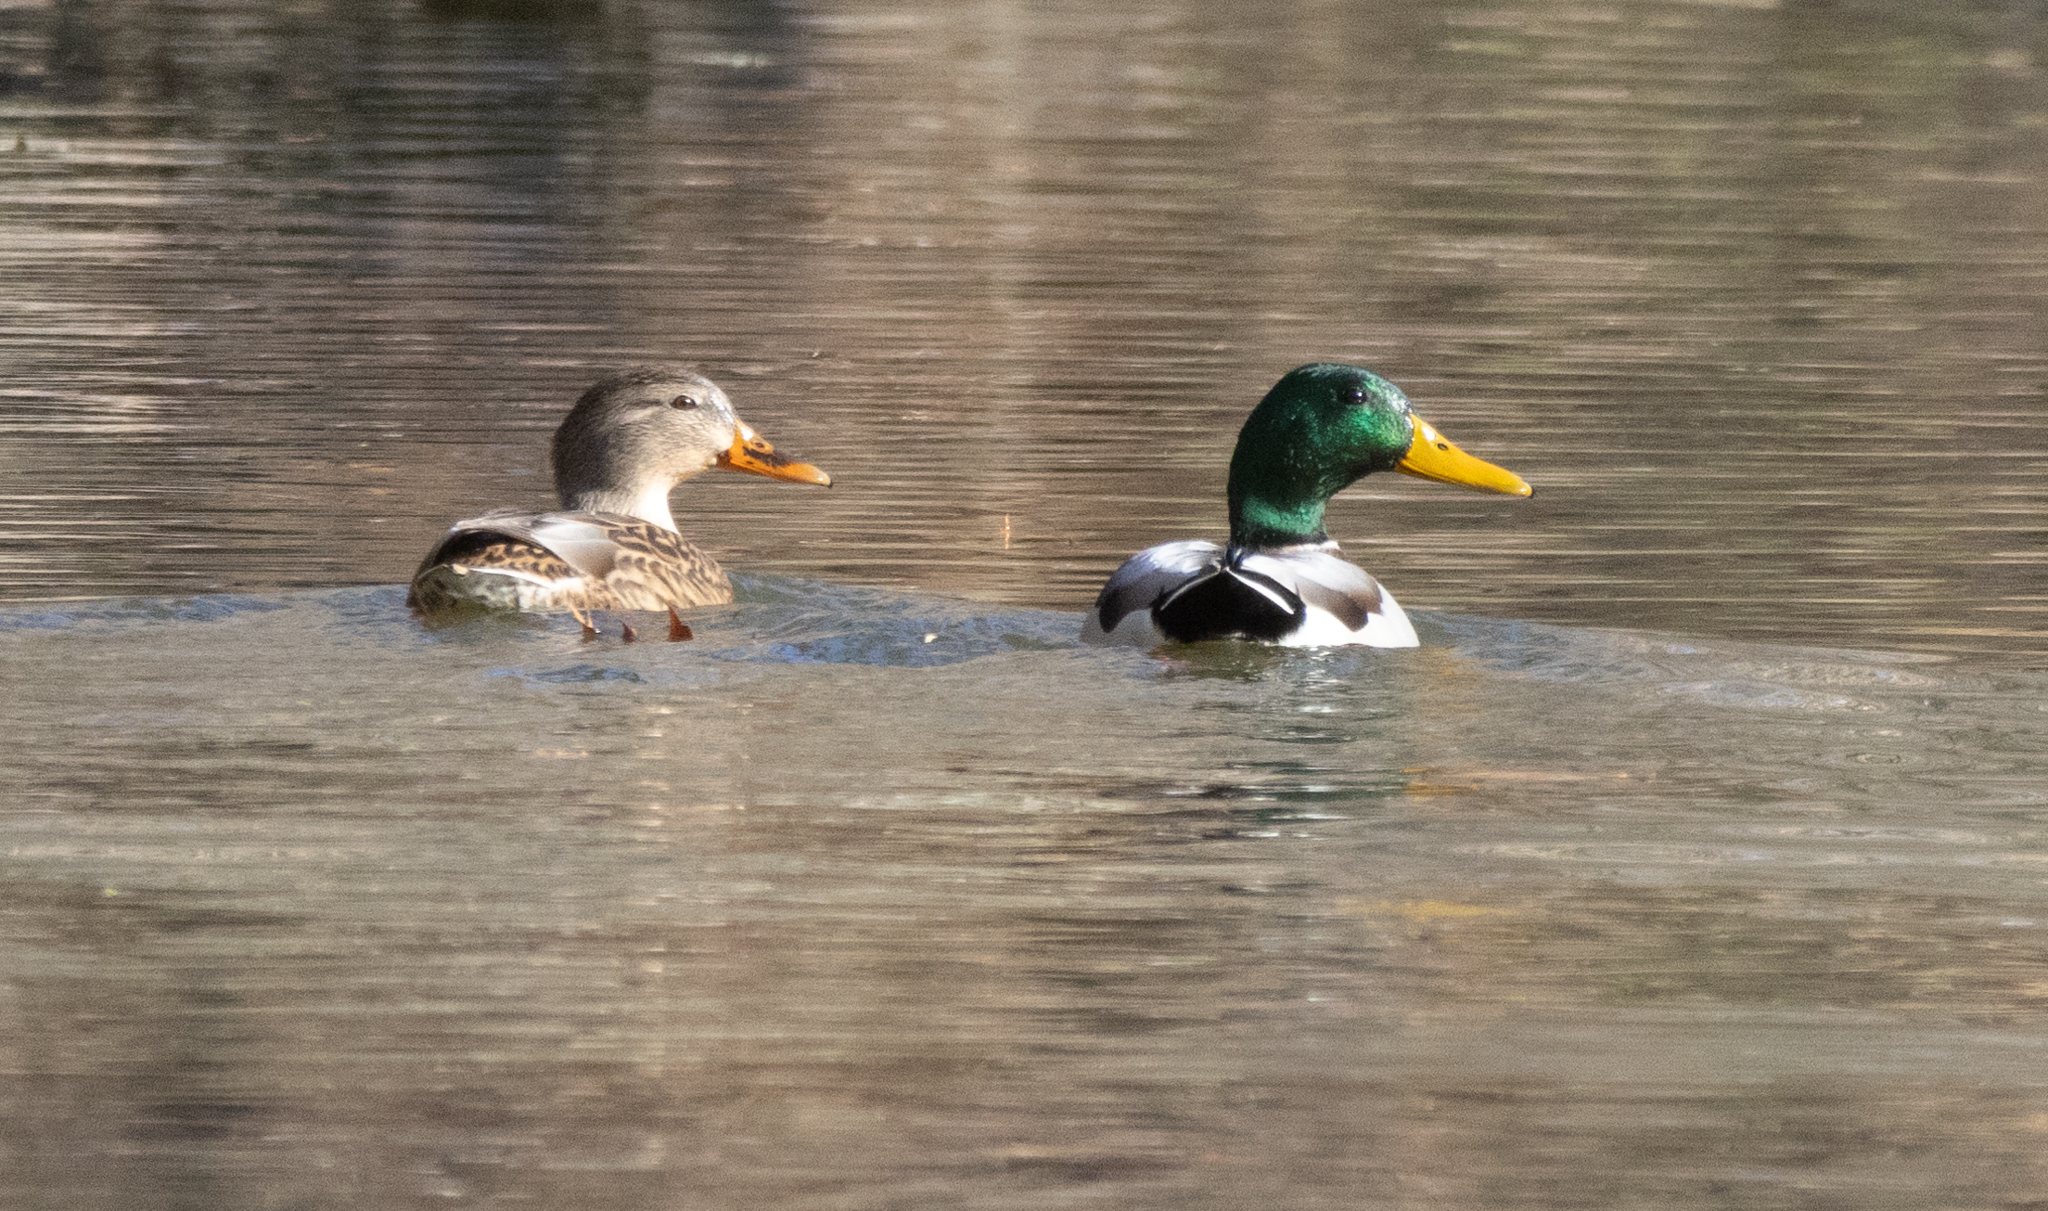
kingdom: Animalia
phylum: Chordata
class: Aves
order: Anseriformes
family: Anatidae
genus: Anas
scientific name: Anas platyrhynchos
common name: Mallard
